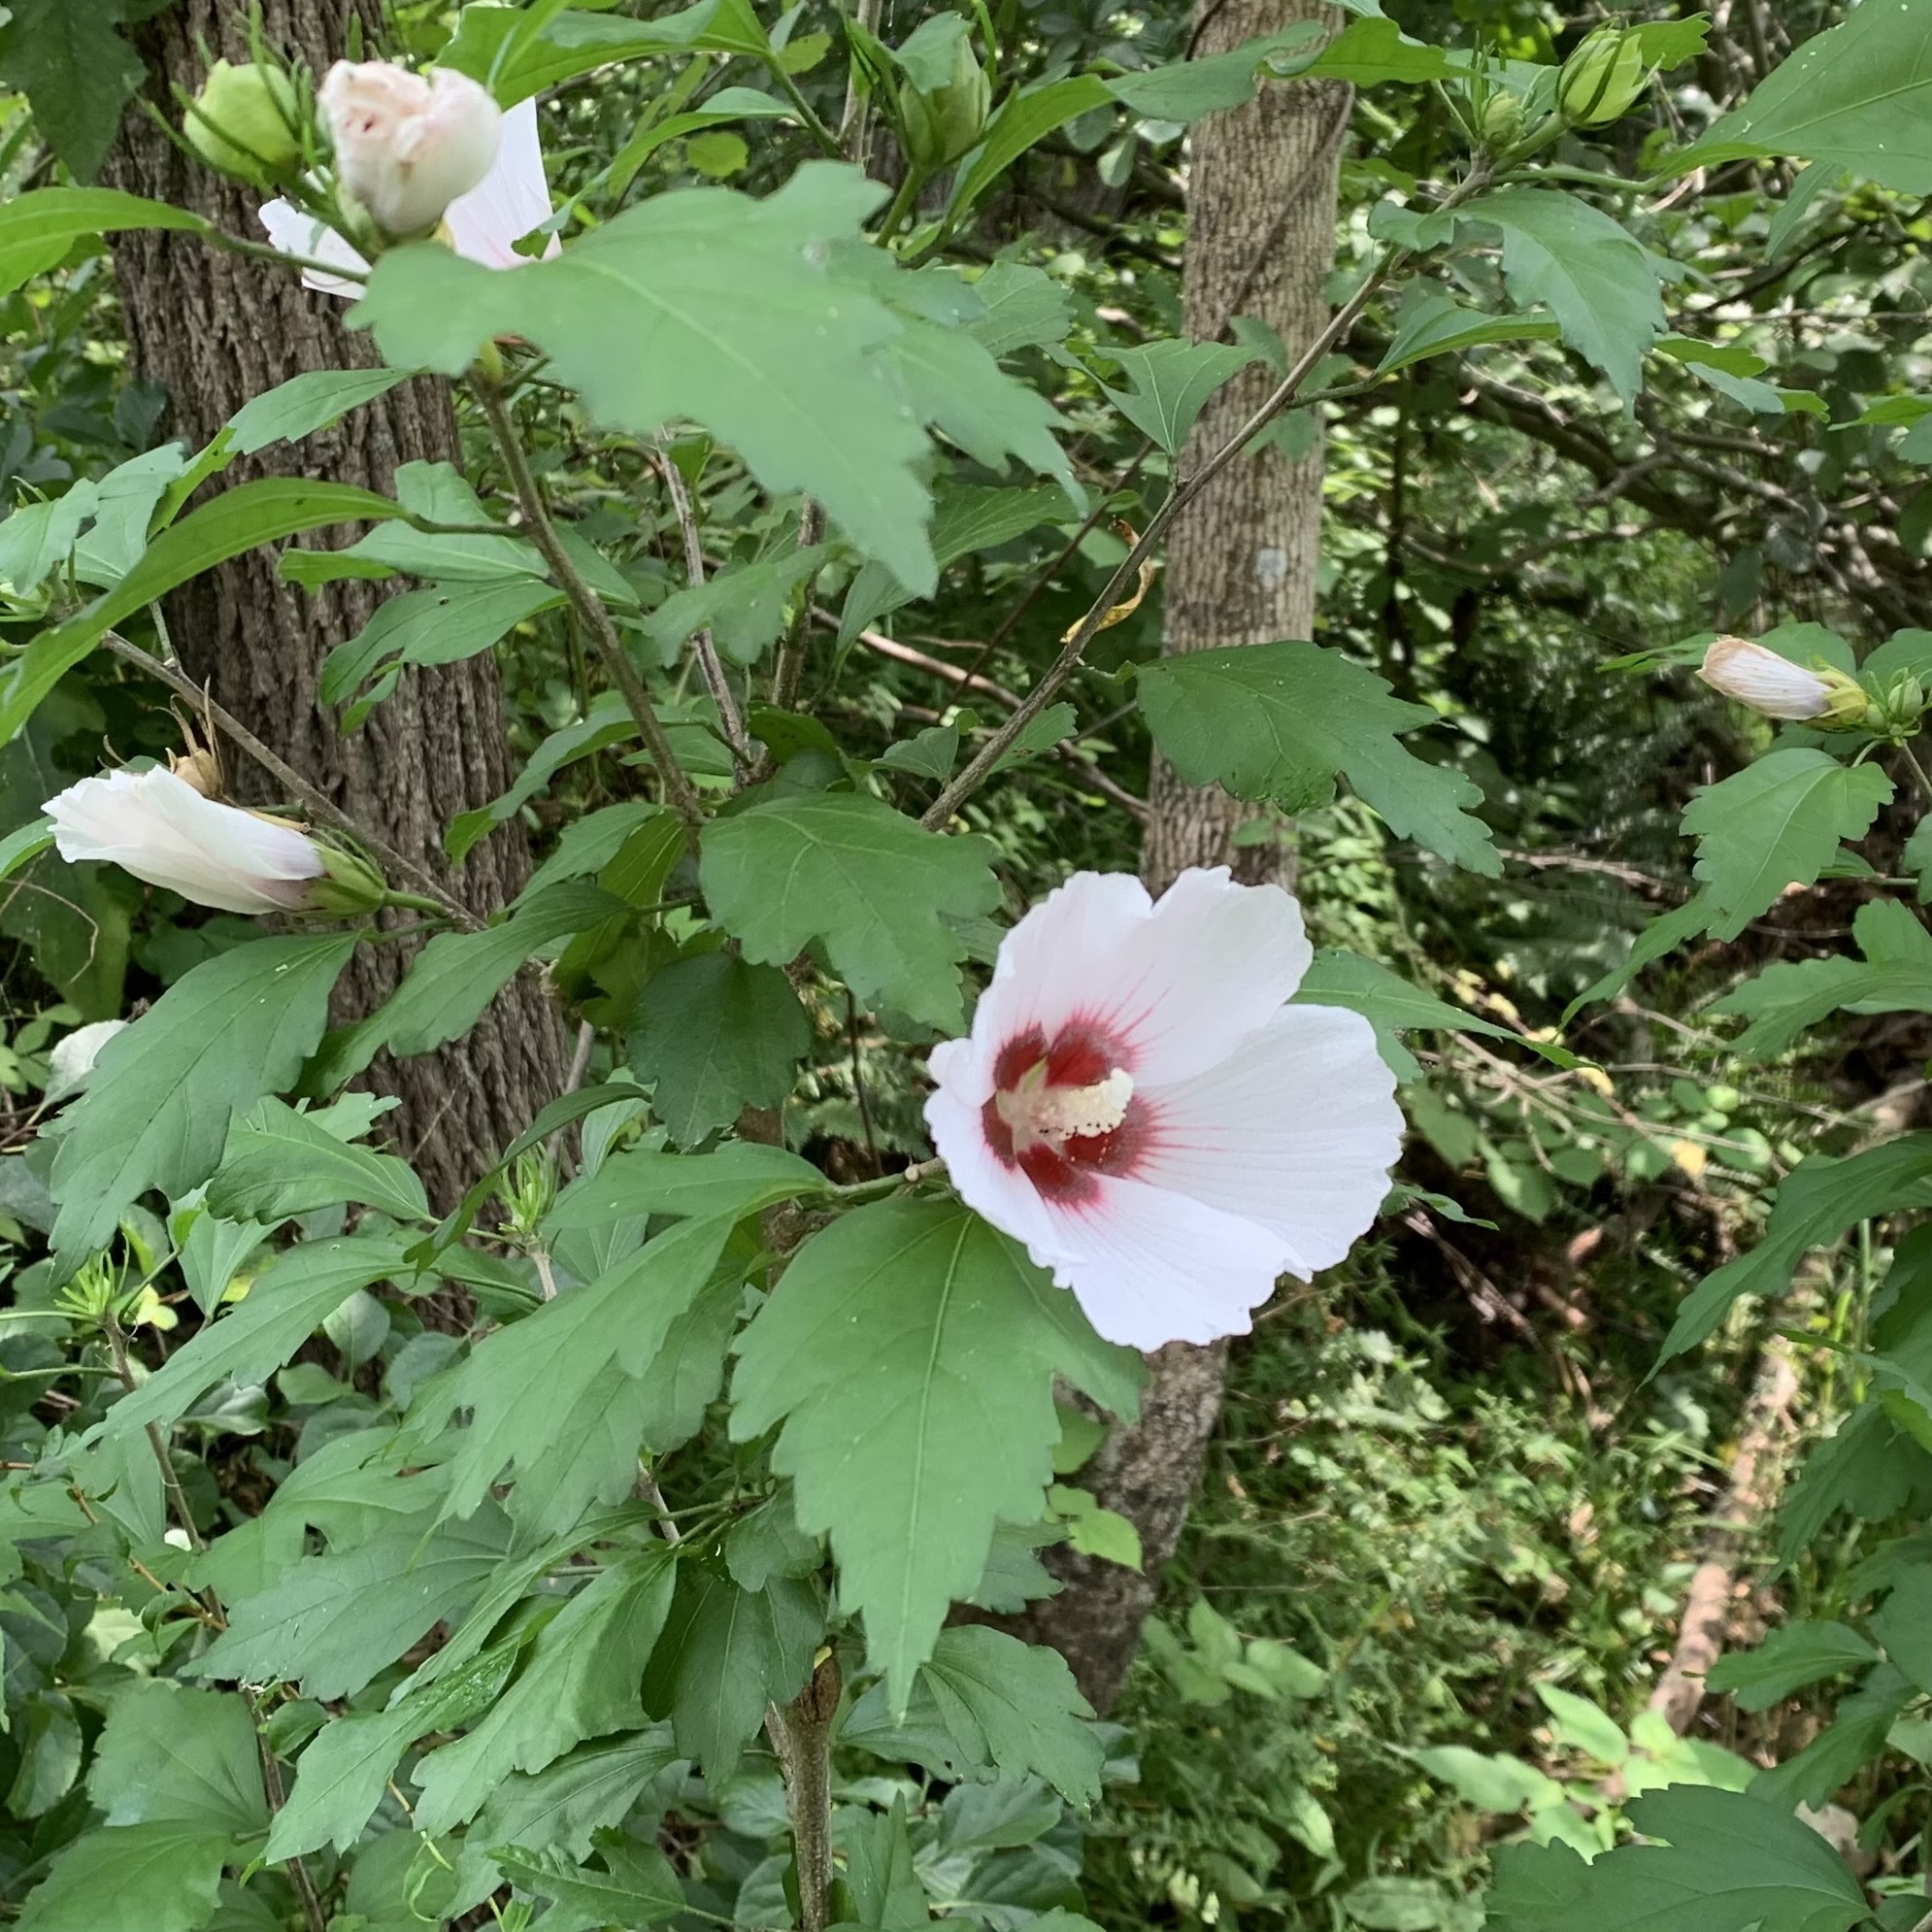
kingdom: Plantae
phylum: Tracheophyta
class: Magnoliopsida
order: Malvales
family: Malvaceae
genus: Hibiscus
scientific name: Hibiscus syriacus
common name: Syrian ketmia
